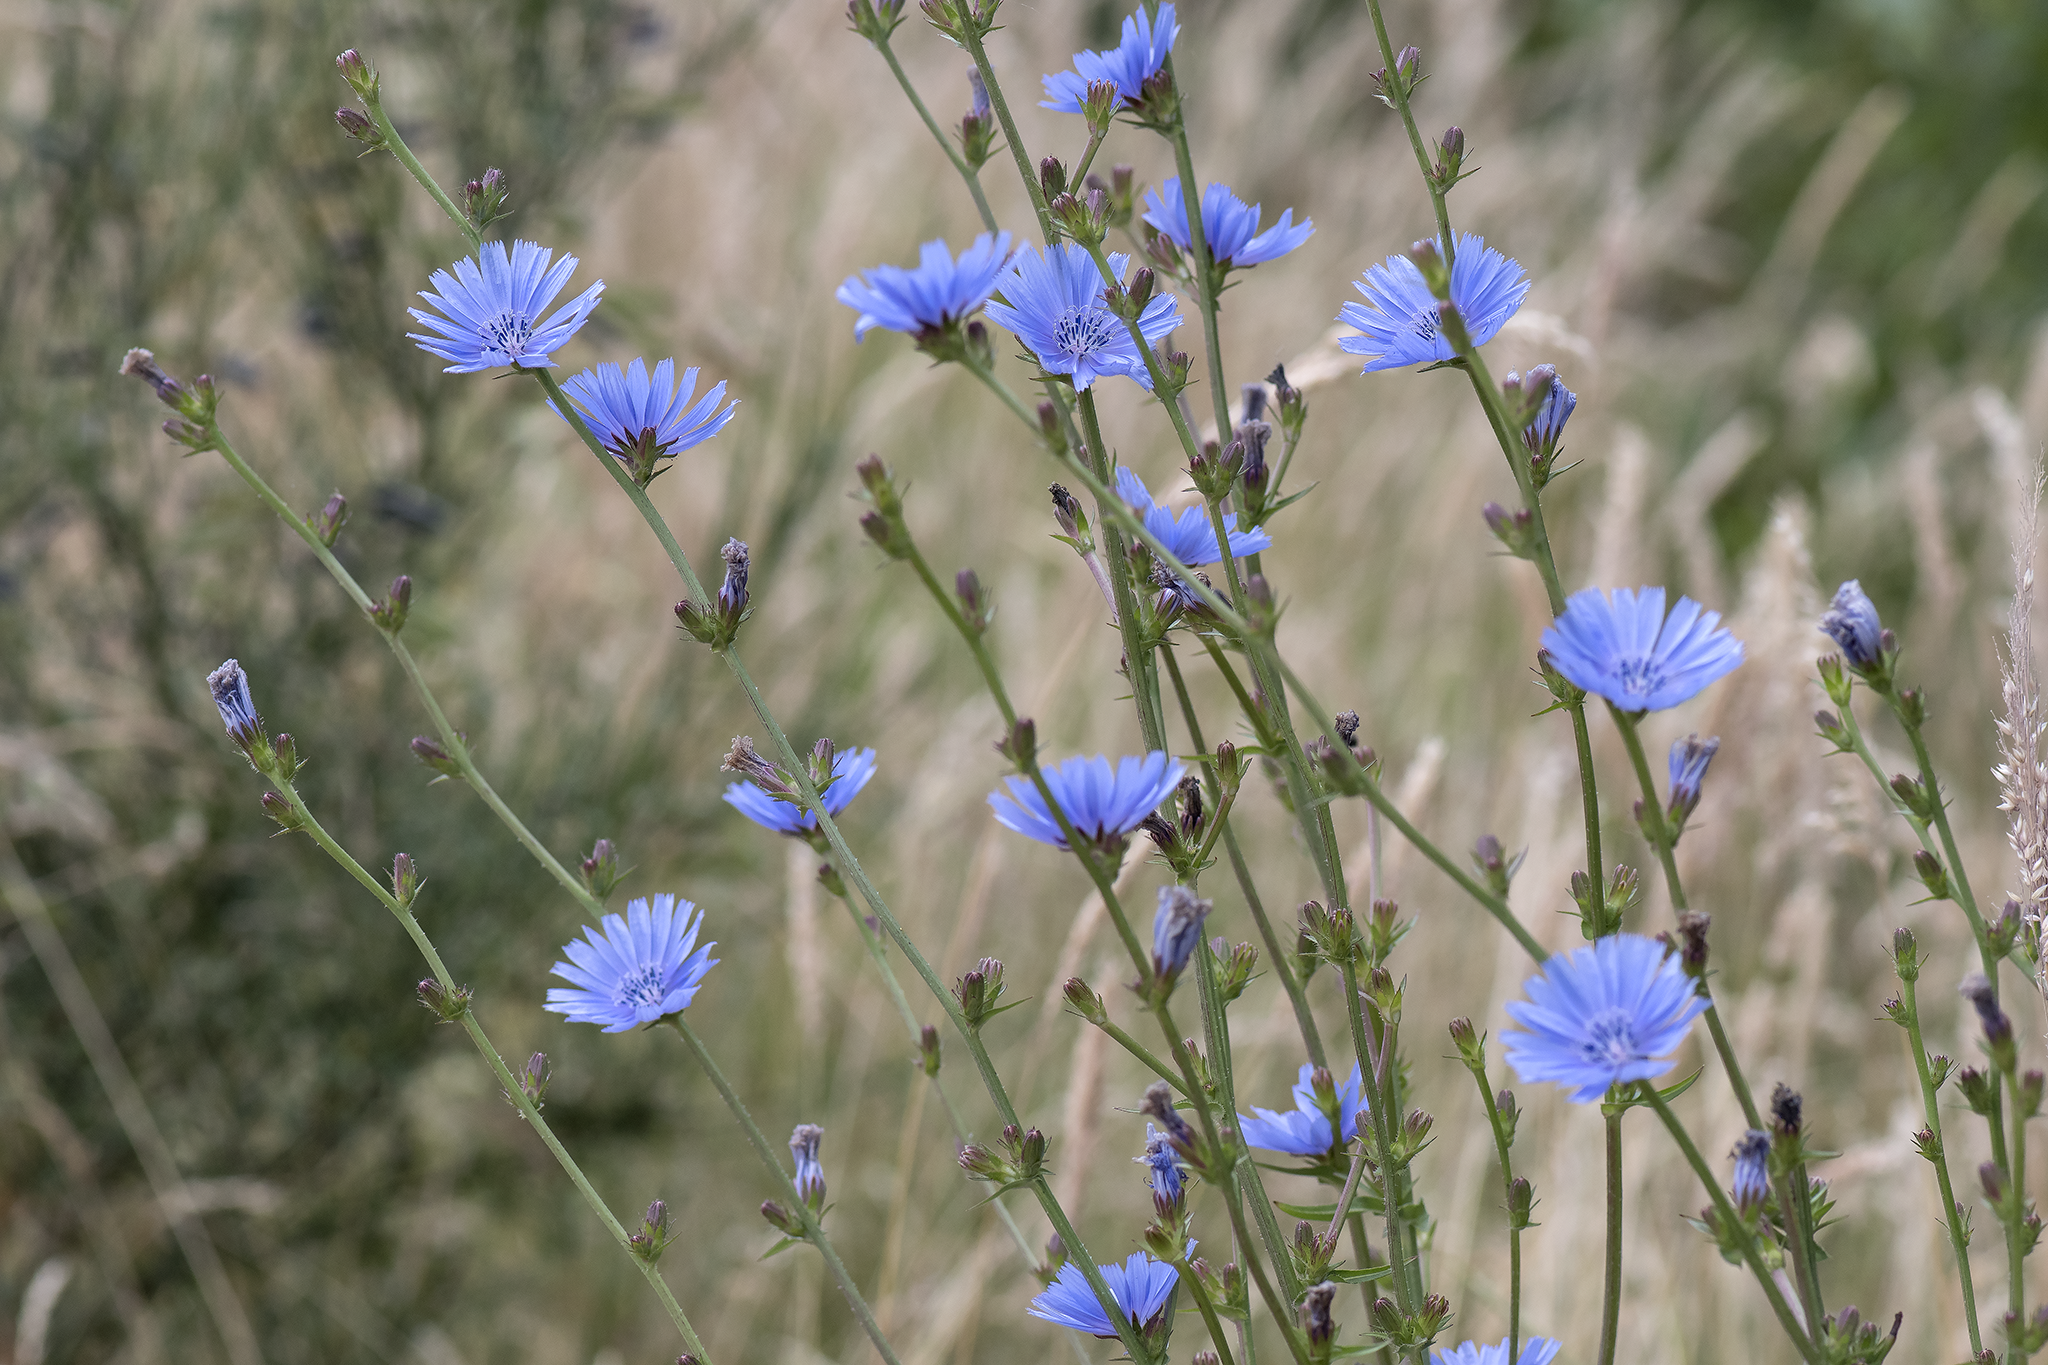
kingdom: Plantae
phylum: Tracheophyta
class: Magnoliopsida
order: Asterales
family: Asteraceae
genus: Cichorium
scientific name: Cichorium intybus
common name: Chicory
